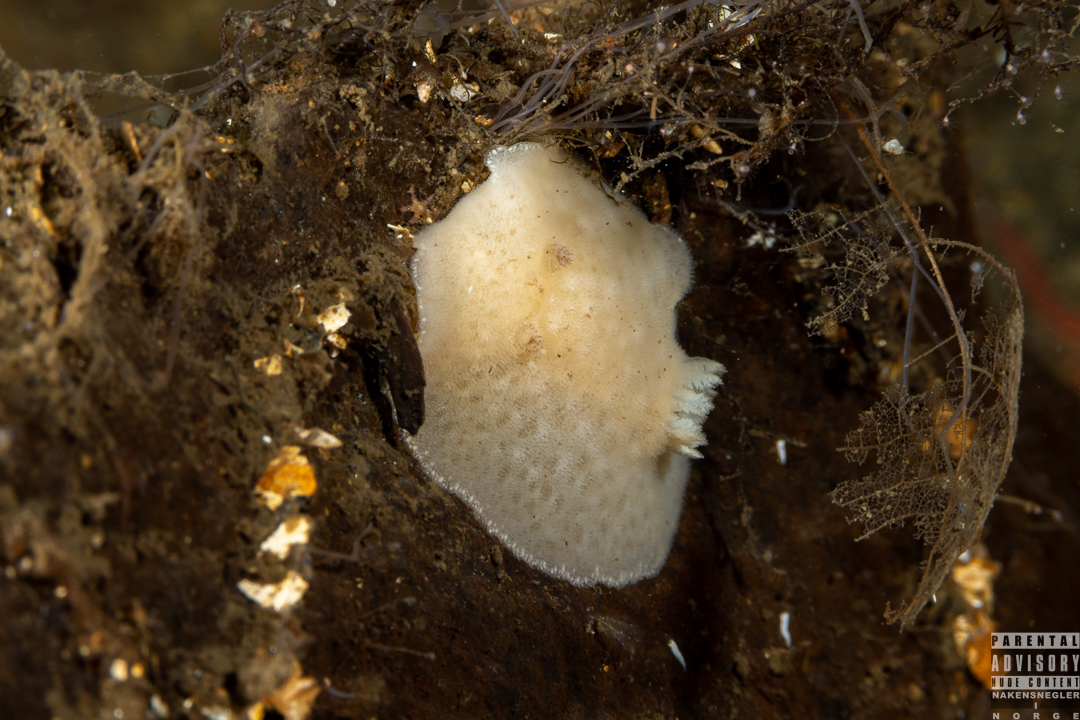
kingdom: Animalia
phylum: Mollusca
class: Gastropoda
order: Nudibranchia
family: Discodorididae
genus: Jorunna
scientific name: Jorunna tomentosa
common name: Grey sea slug
